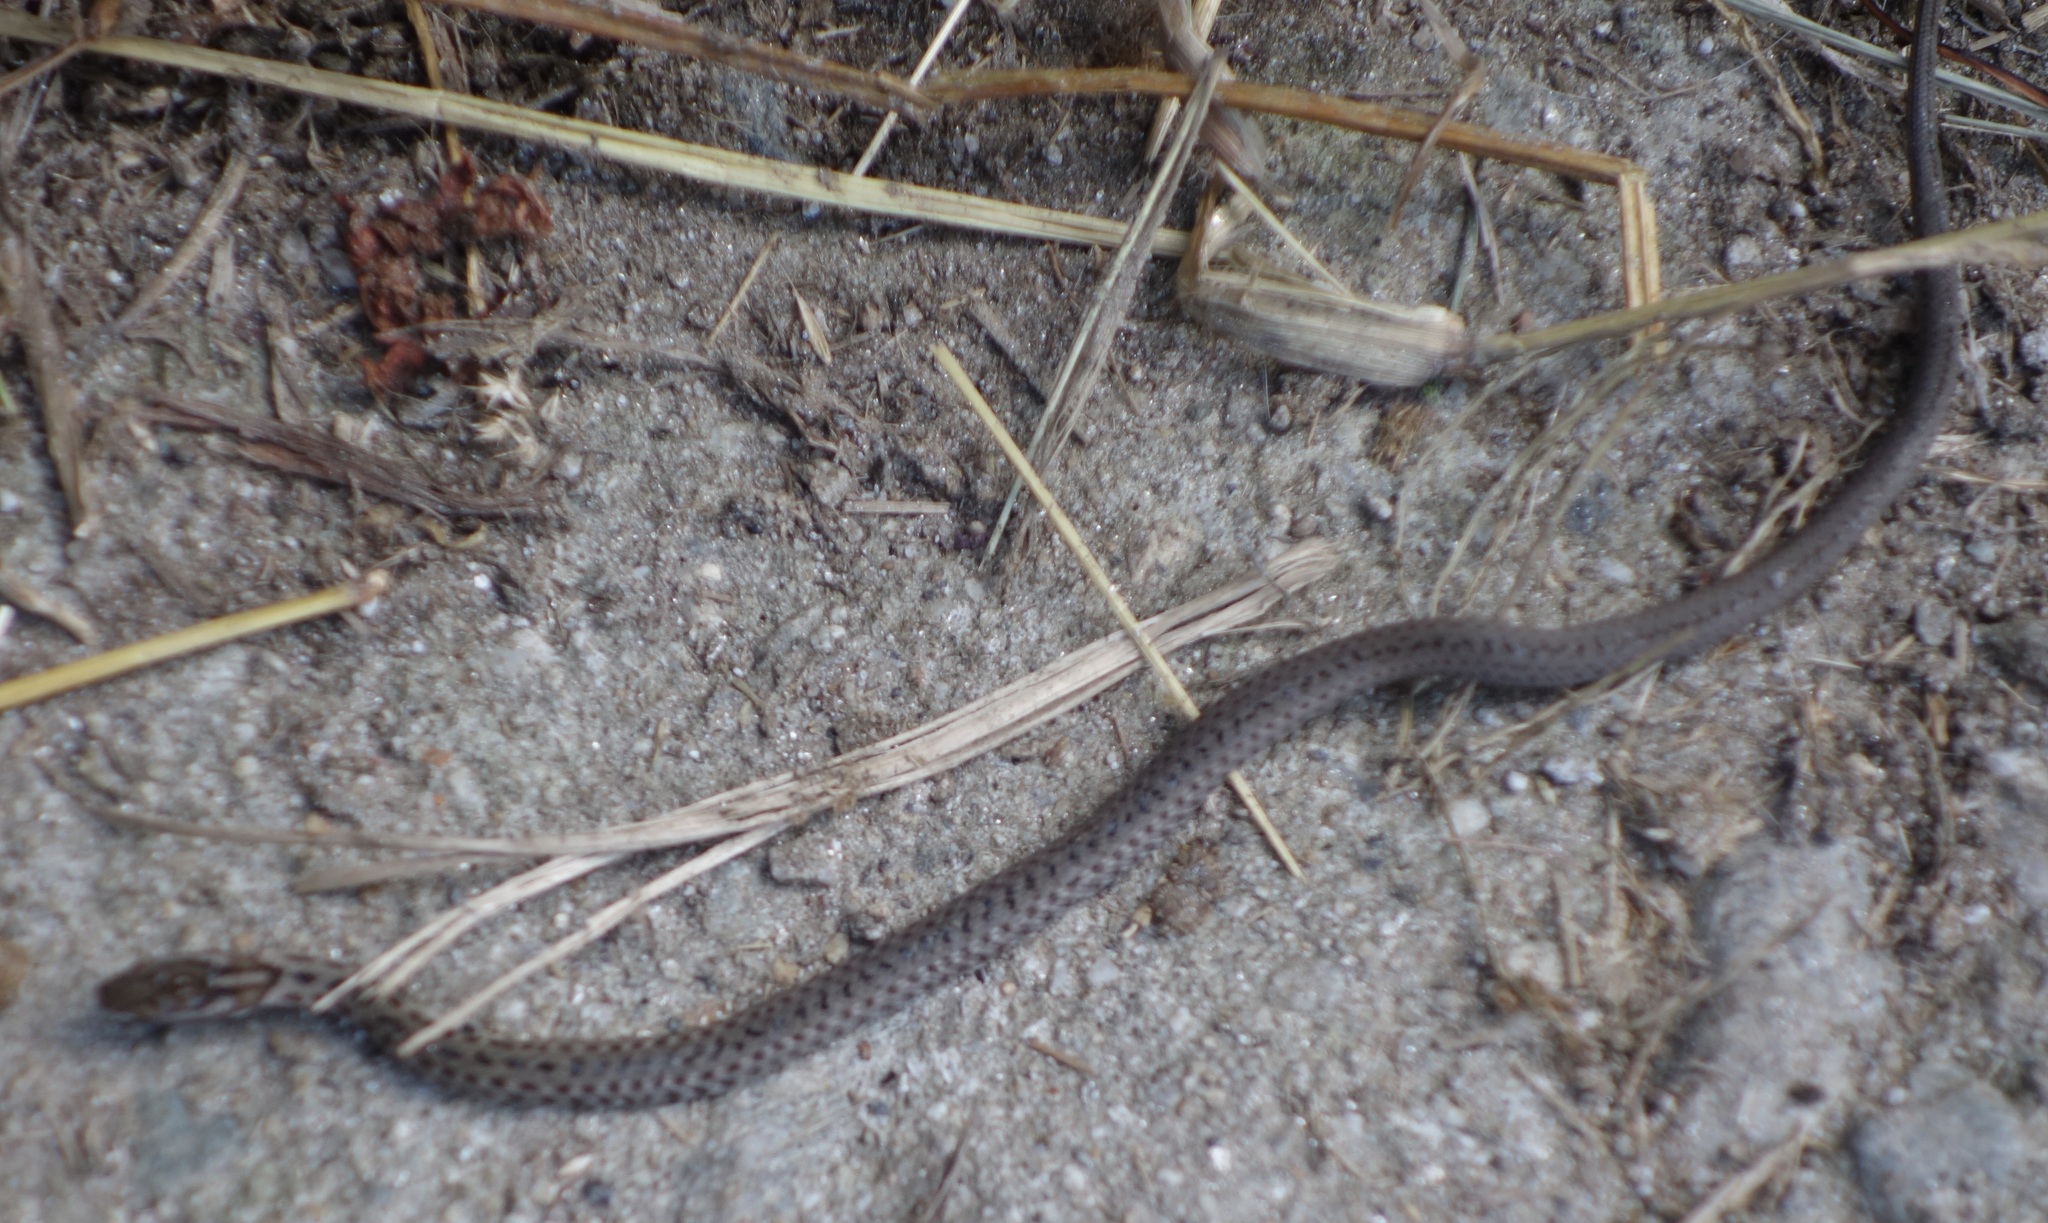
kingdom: Animalia
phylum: Chordata
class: Squamata
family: Colubridae
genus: Herpetoreas
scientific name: Herpetoreas platyceps
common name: Himalayan keelback
